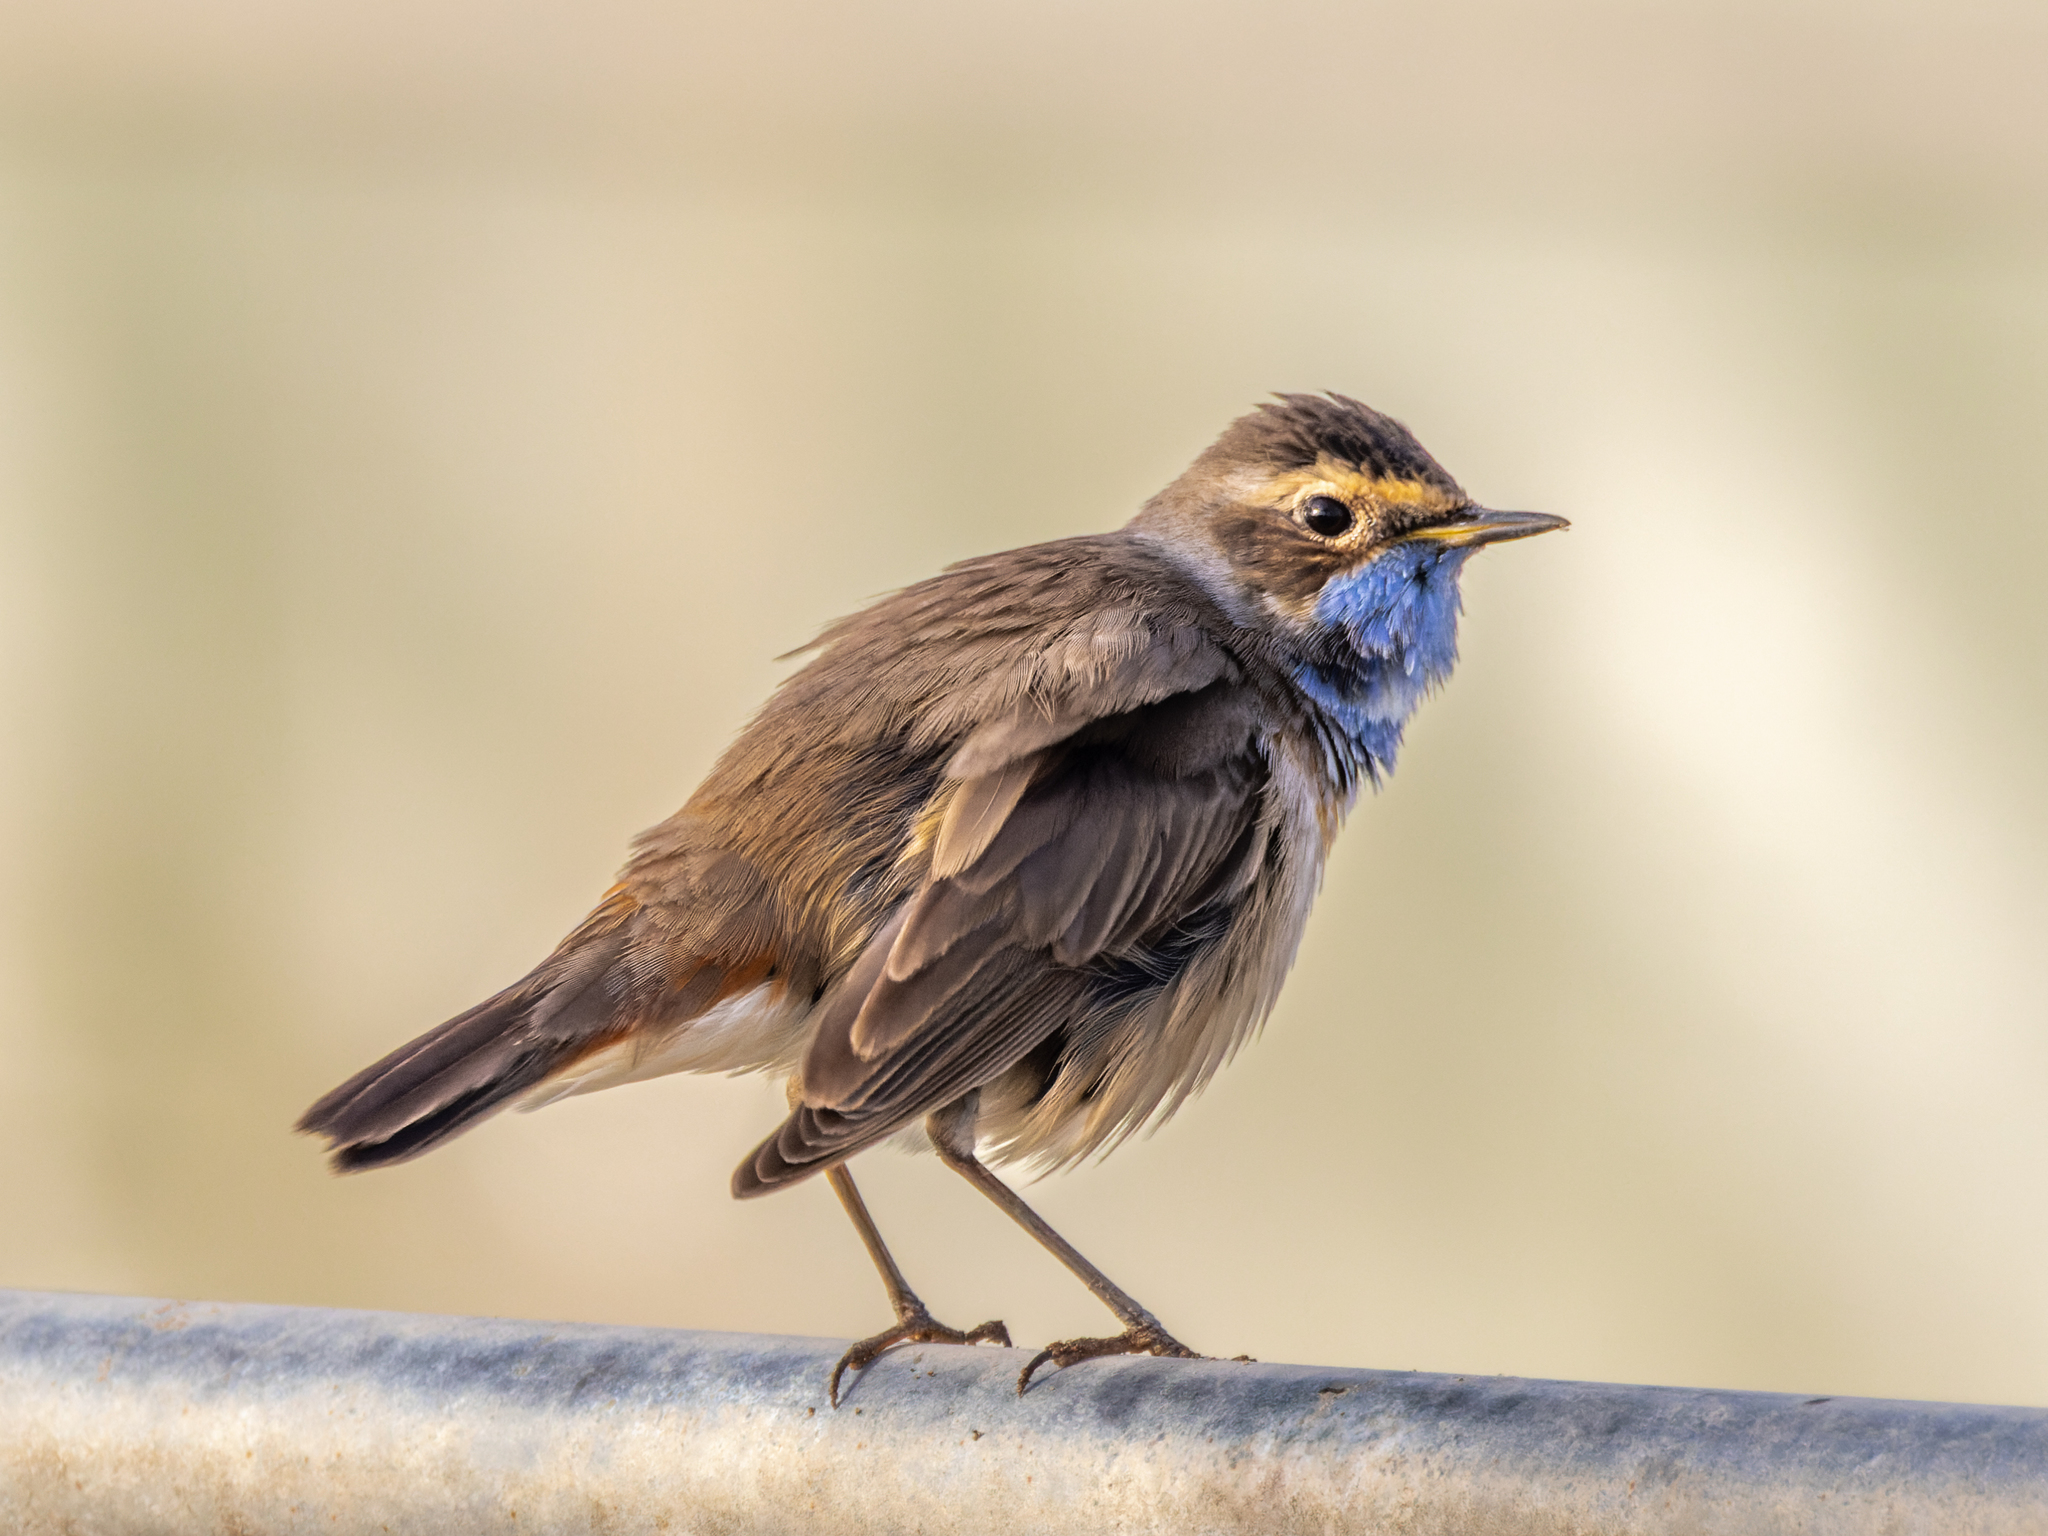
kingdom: Animalia
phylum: Chordata
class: Aves
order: Passeriformes
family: Muscicapidae
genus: Luscinia
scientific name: Luscinia svecica
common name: Bluethroat
